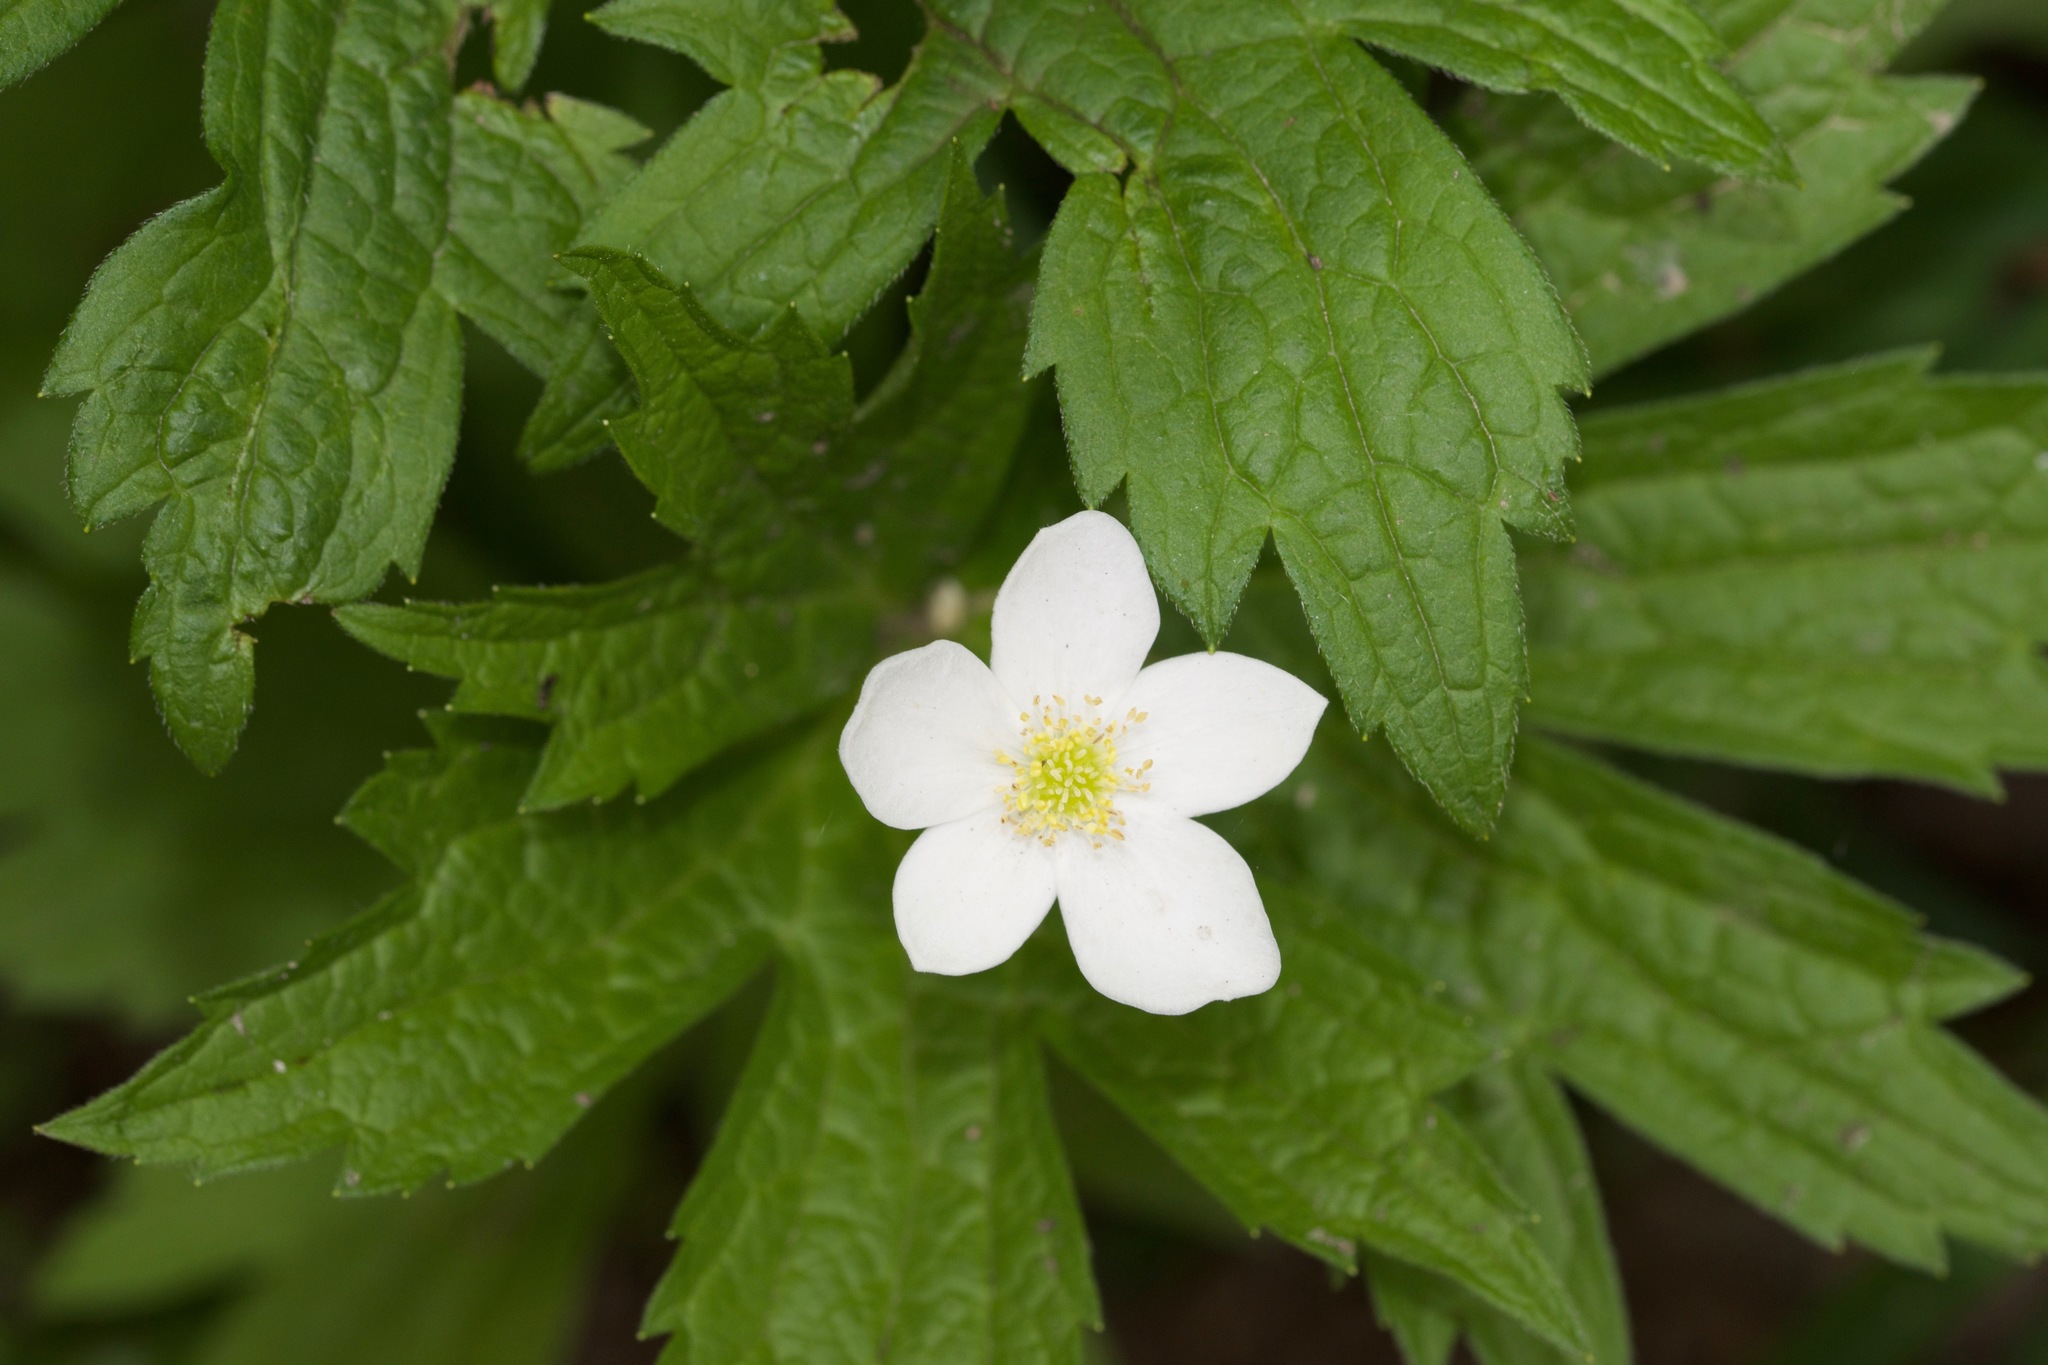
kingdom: Plantae
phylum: Tracheophyta
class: Magnoliopsida
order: Ranunculales
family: Ranunculaceae
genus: Anemonastrum
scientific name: Anemonastrum canadense
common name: Canada anemone
